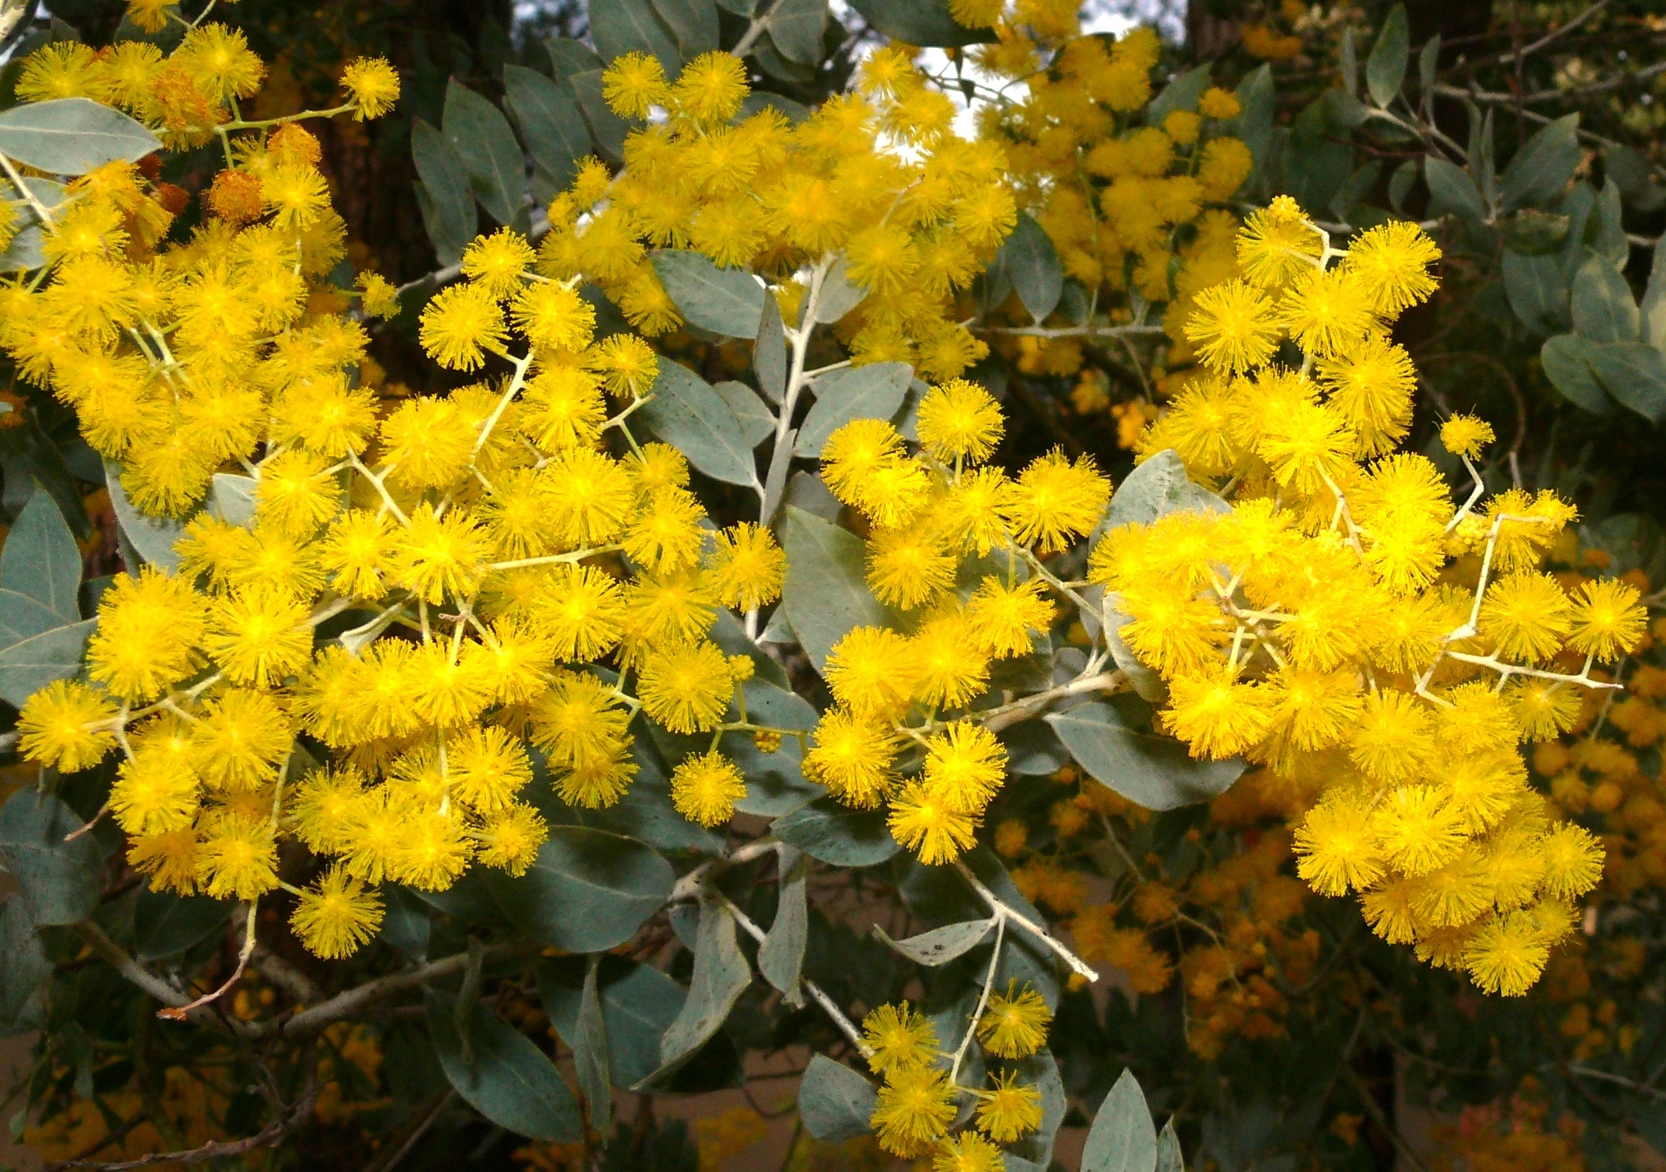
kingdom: Plantae
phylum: Tracheophyta
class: Magnoliopsida
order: Fabales
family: Fabaceae
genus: Acacia
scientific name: Acacia podalyriifolia
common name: Pearl wattle
